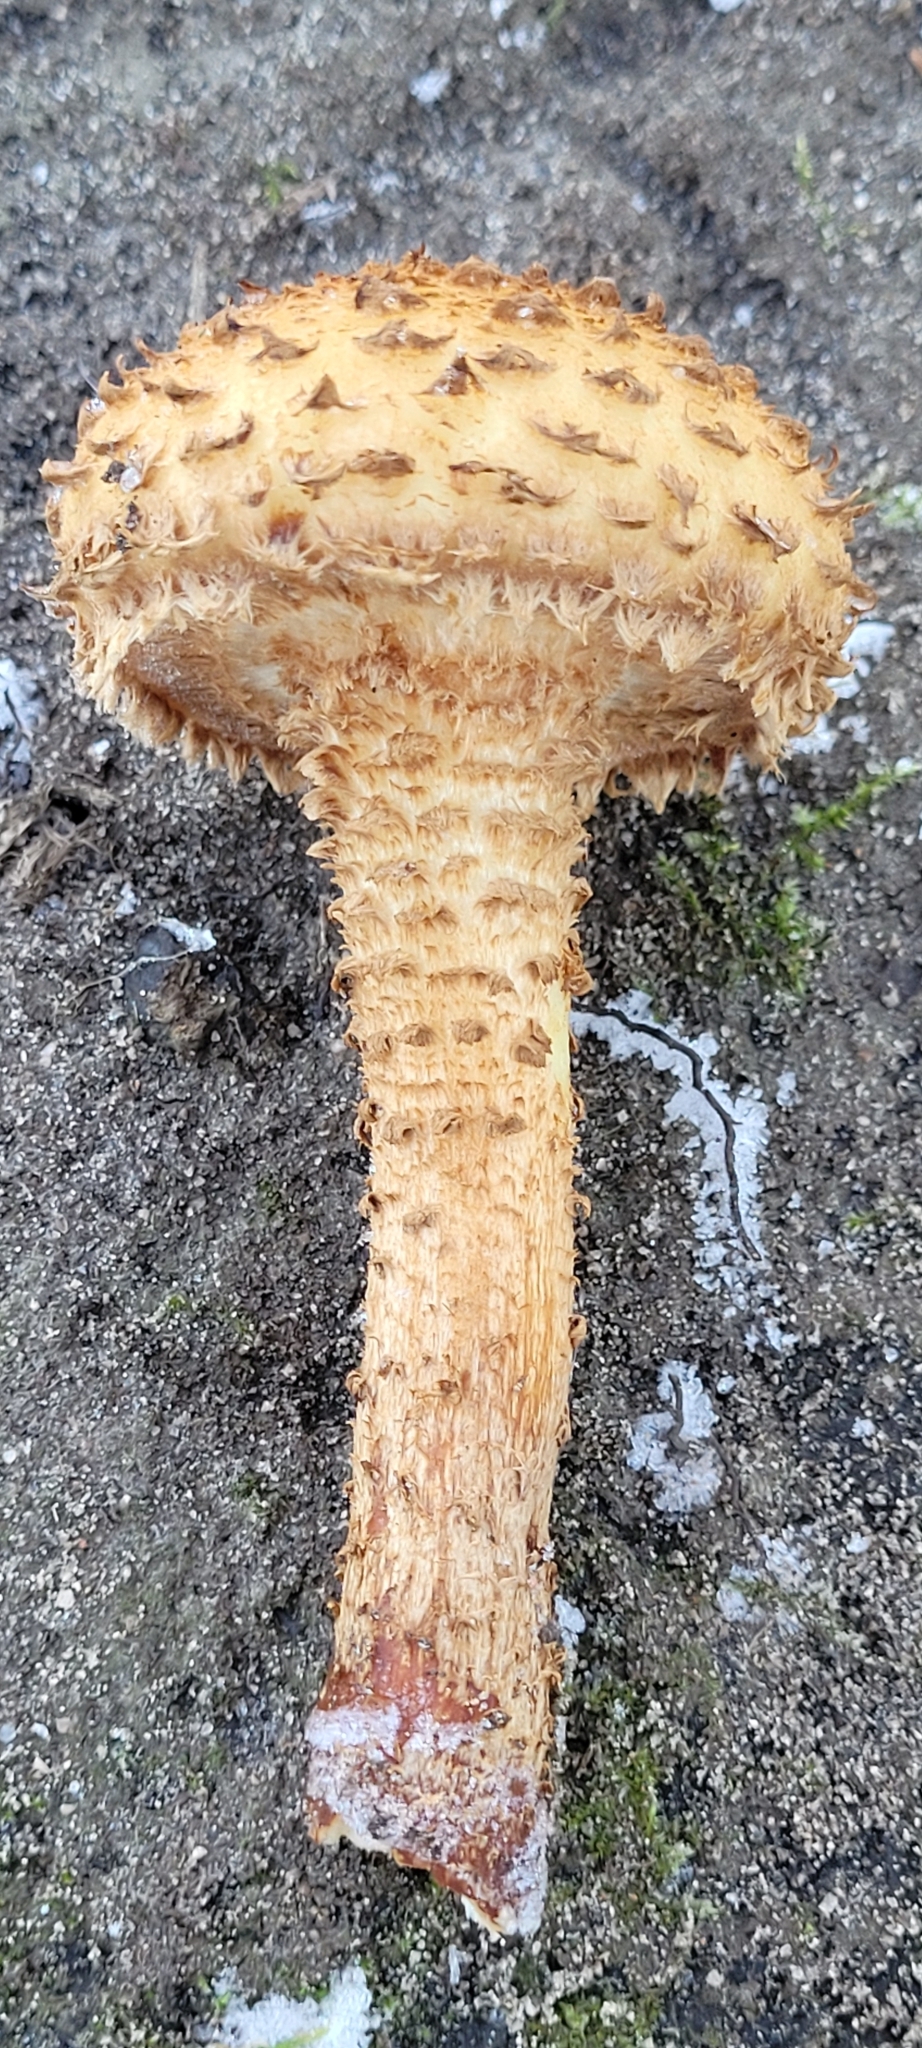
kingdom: Fungi
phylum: Basidiomycota
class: Agaricomycetes
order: Agaricales
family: Strophariaceae
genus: Pholiota
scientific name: Pholiota squarrosa
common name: Shaggy pholiota
